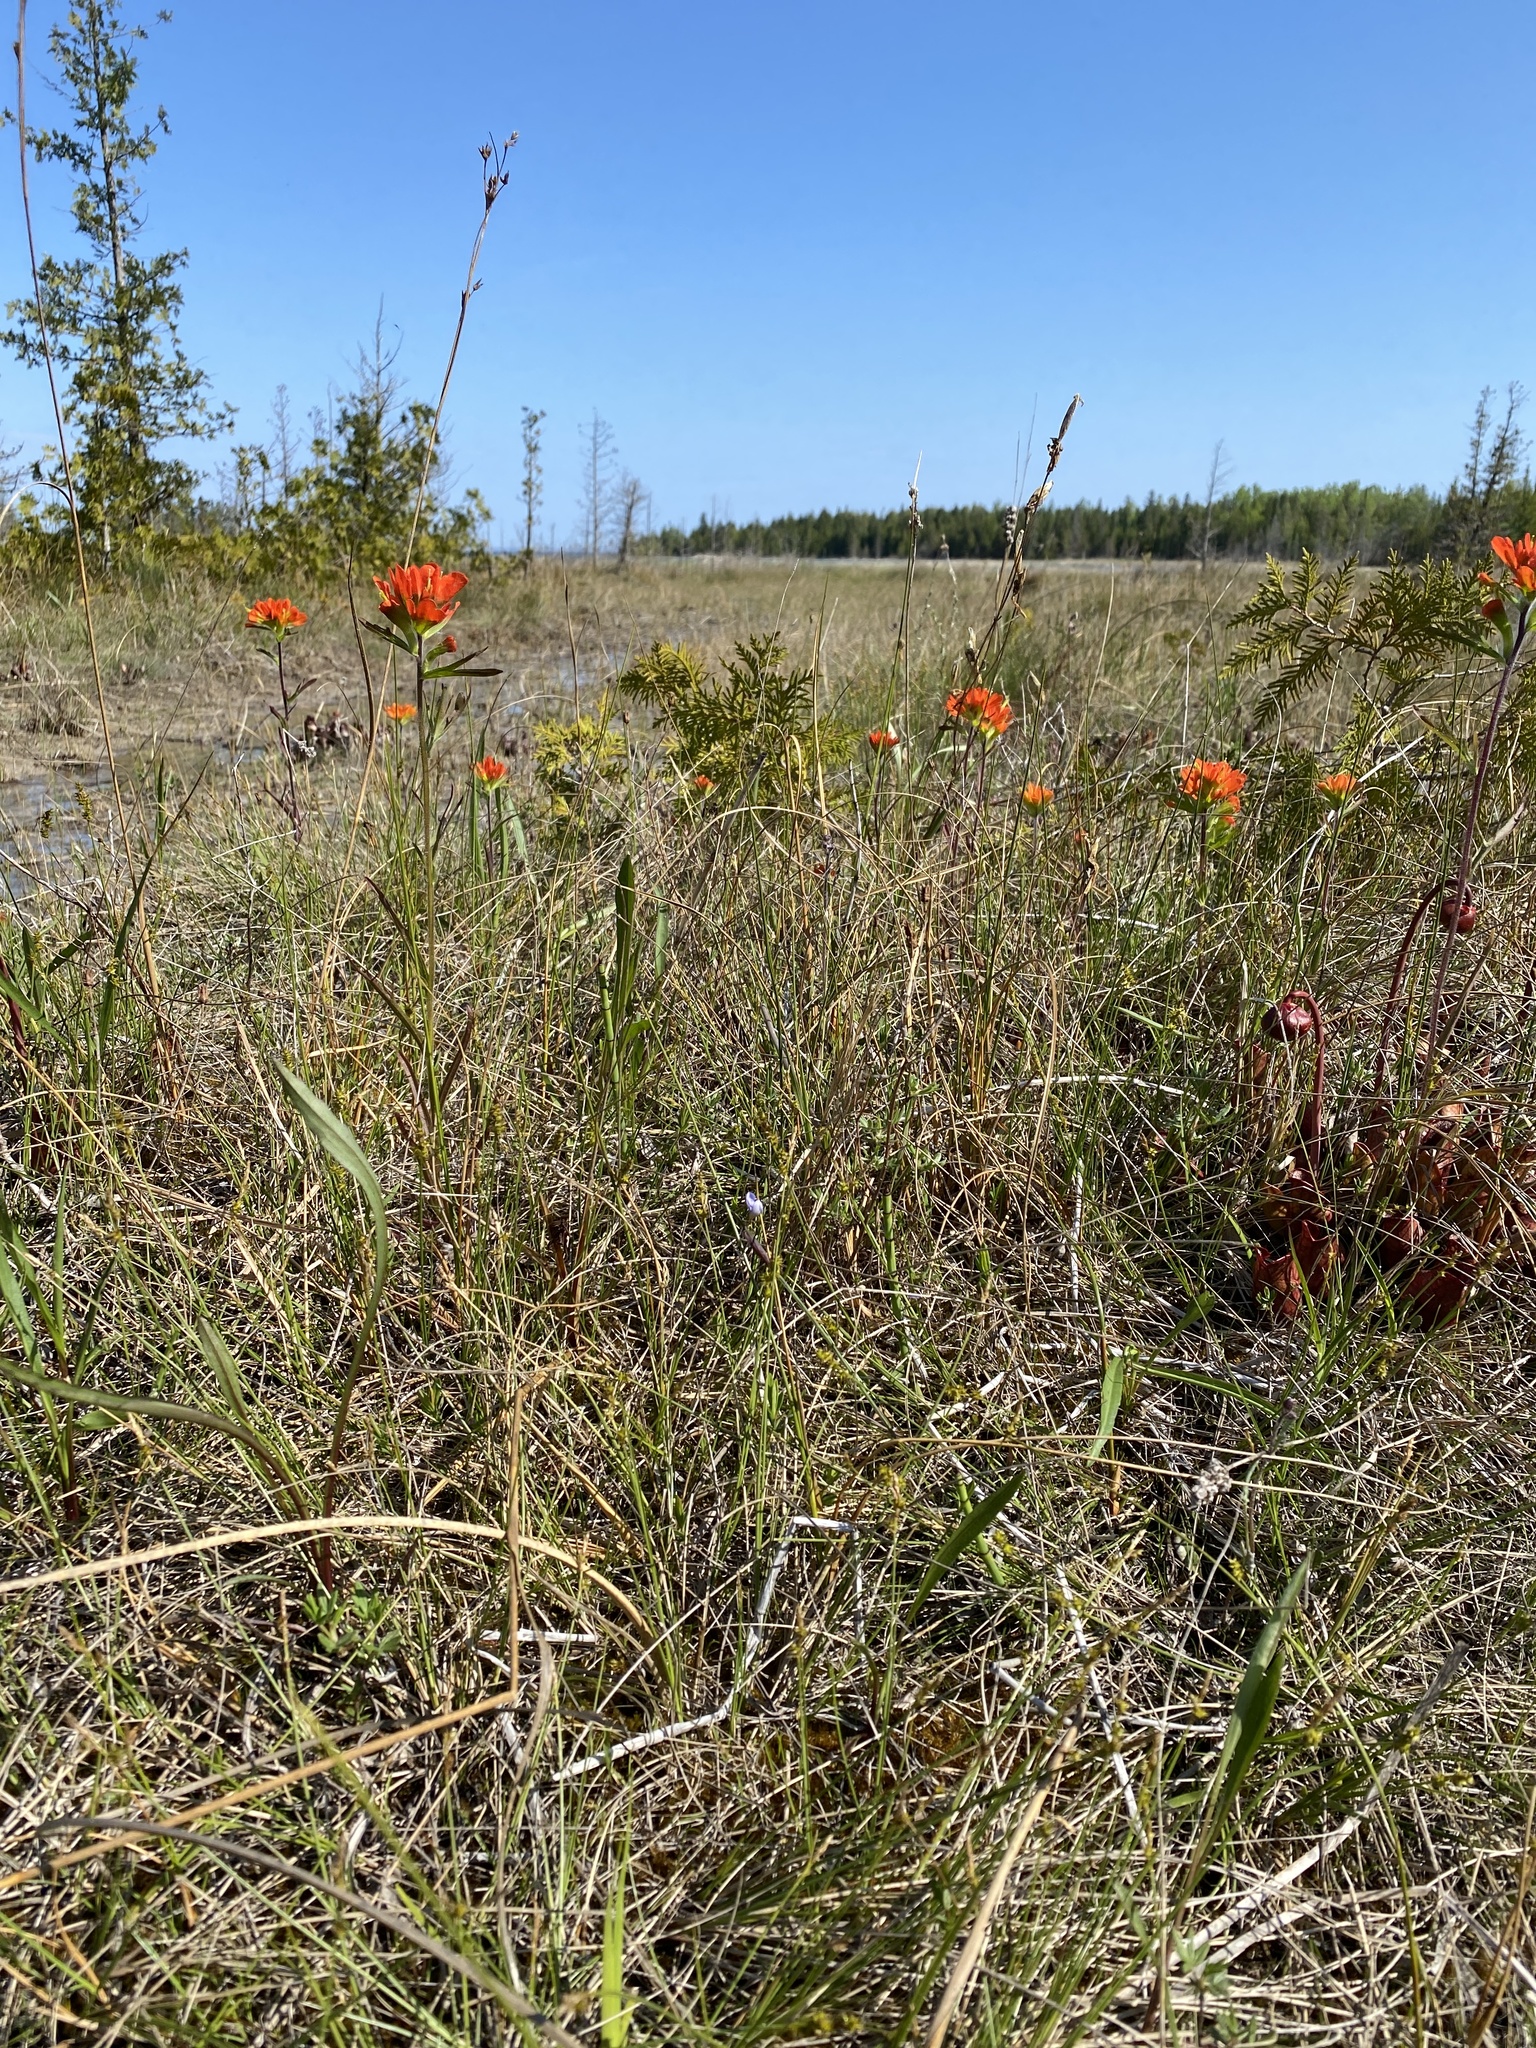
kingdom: Plantae
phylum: Tracheophyta
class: Magnoliopsida
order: Lamiales
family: Orobanchaceae
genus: Castilleja
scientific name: Castilleja coccinea
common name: Scarlet paintbrush
